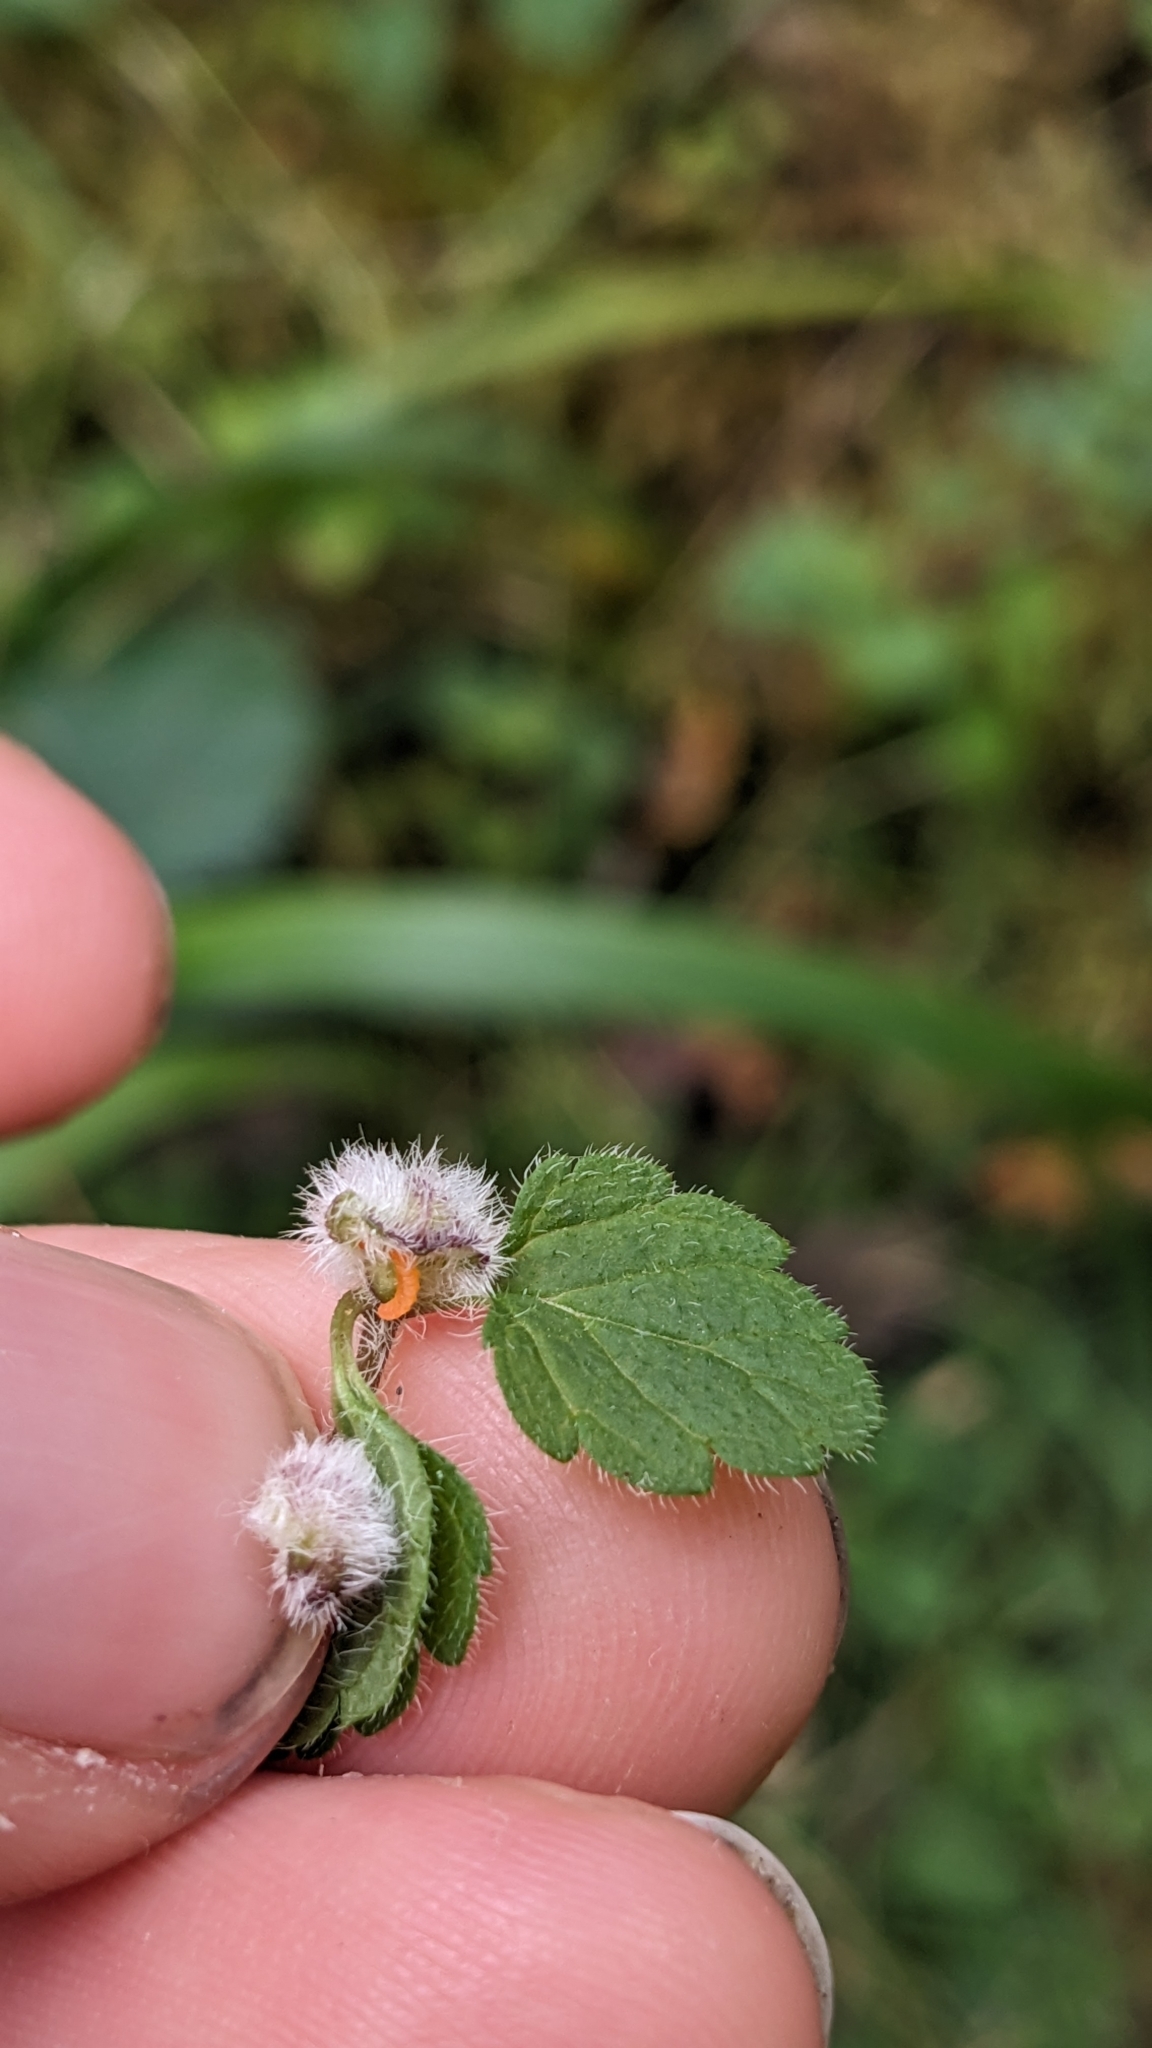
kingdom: Animalia
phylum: Arthropoda
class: Insecta
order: Diptera
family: Cecidomyiidae
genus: Jaapiella
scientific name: Jaapiella veronicae
